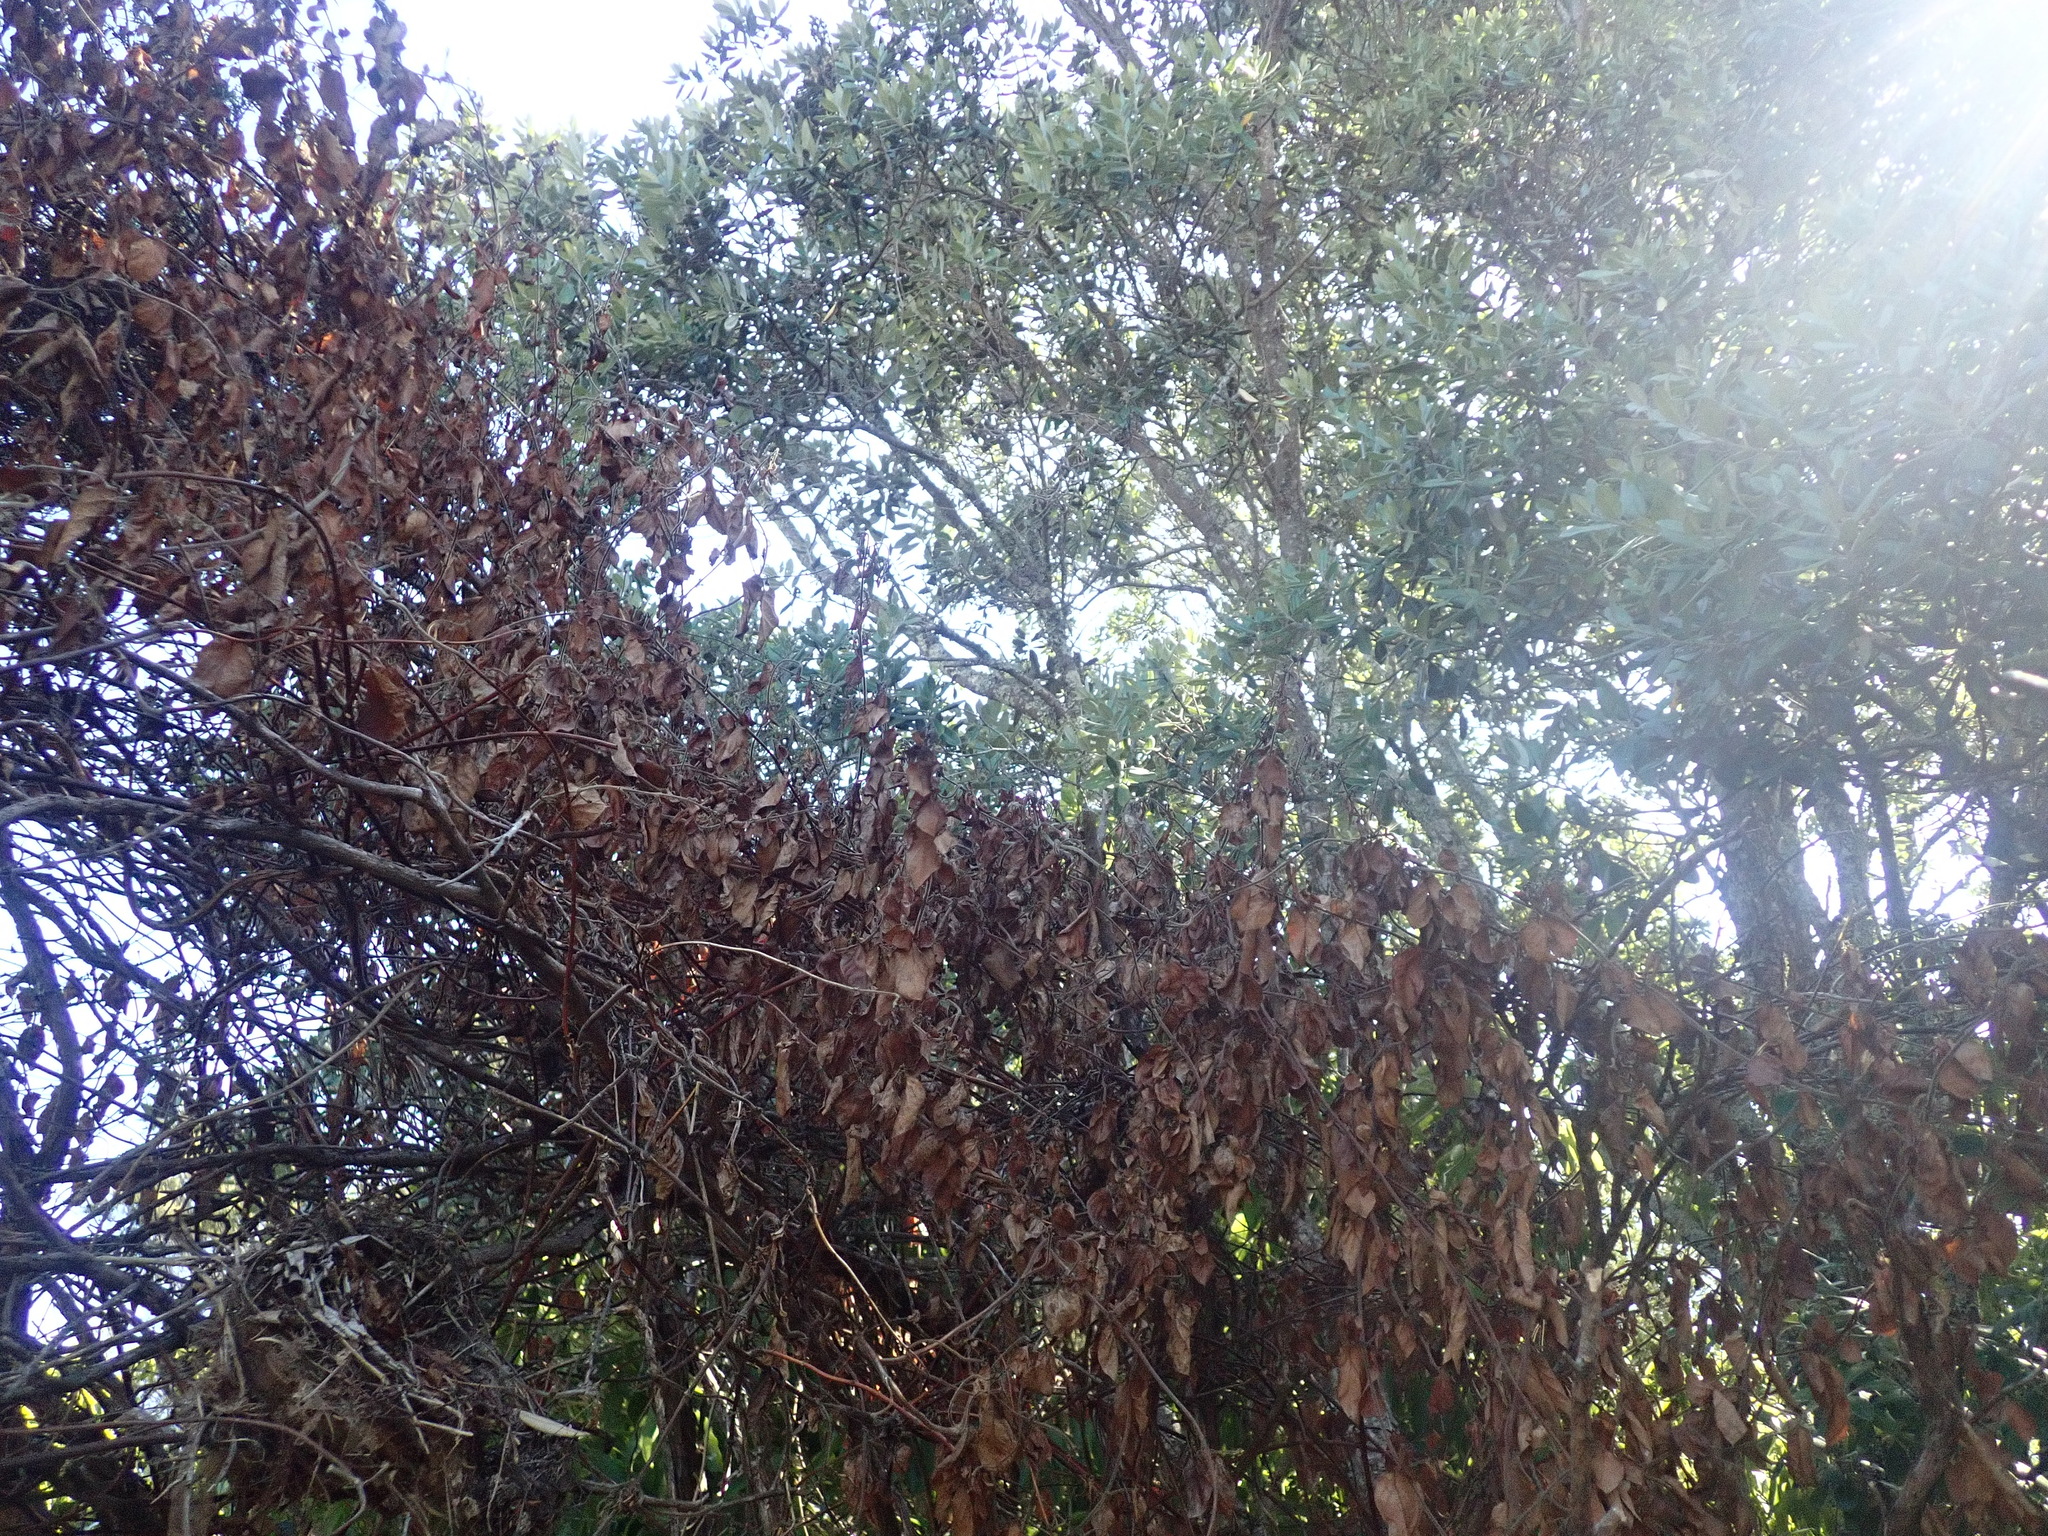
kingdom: Plantae
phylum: Tracheophyta
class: Magnoliopsida
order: Dipsacales
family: Caprifoliaceae
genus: Lonicera
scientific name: Lonicera japonica
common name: Japanese honeysuckle
